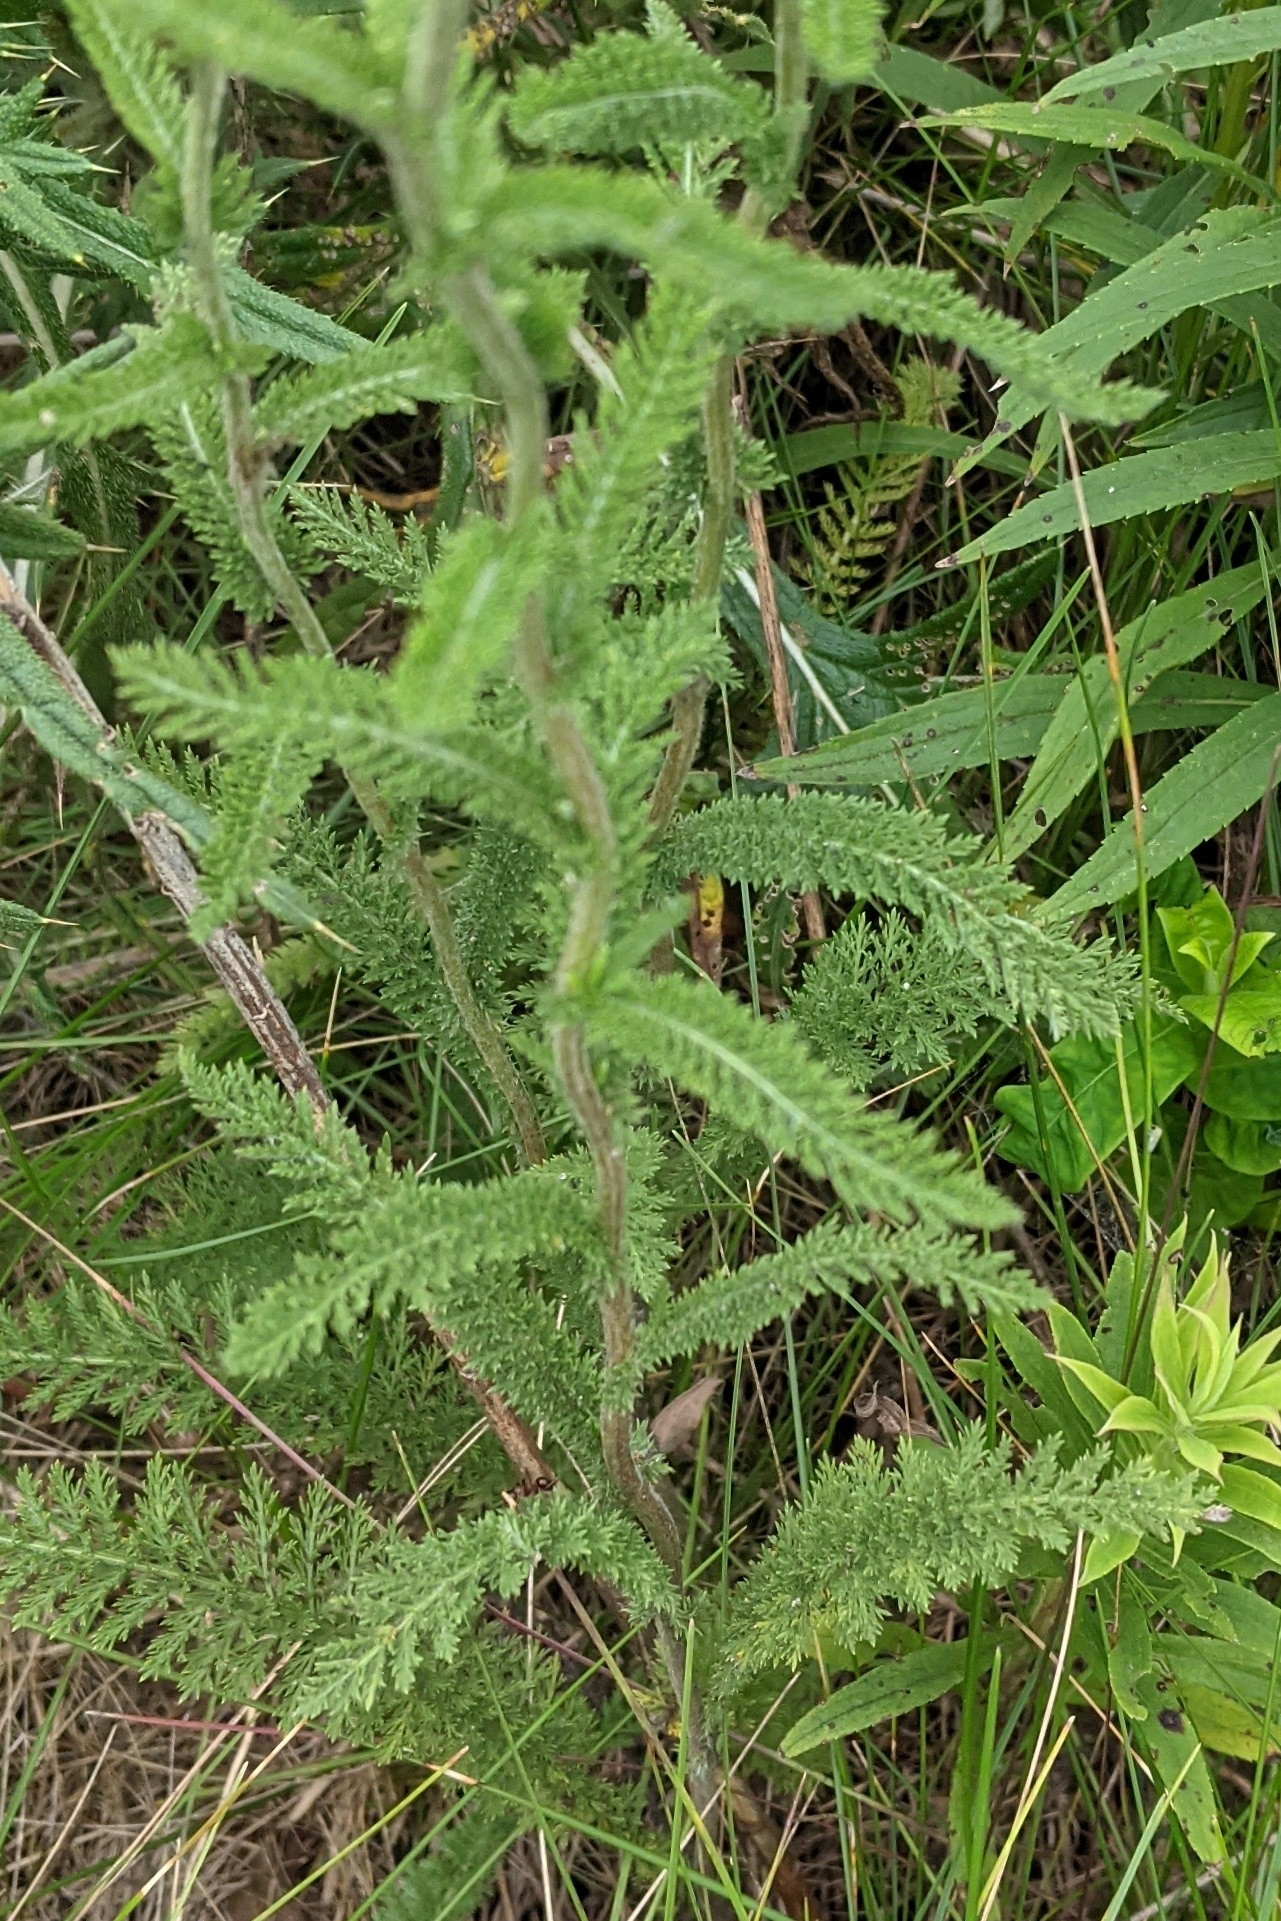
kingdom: Plantae
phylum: Tracheophyta
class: Magnoliopsida
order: Asterales
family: Asteraceae
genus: Achillea
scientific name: Achillea millefolium
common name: Yarrow
